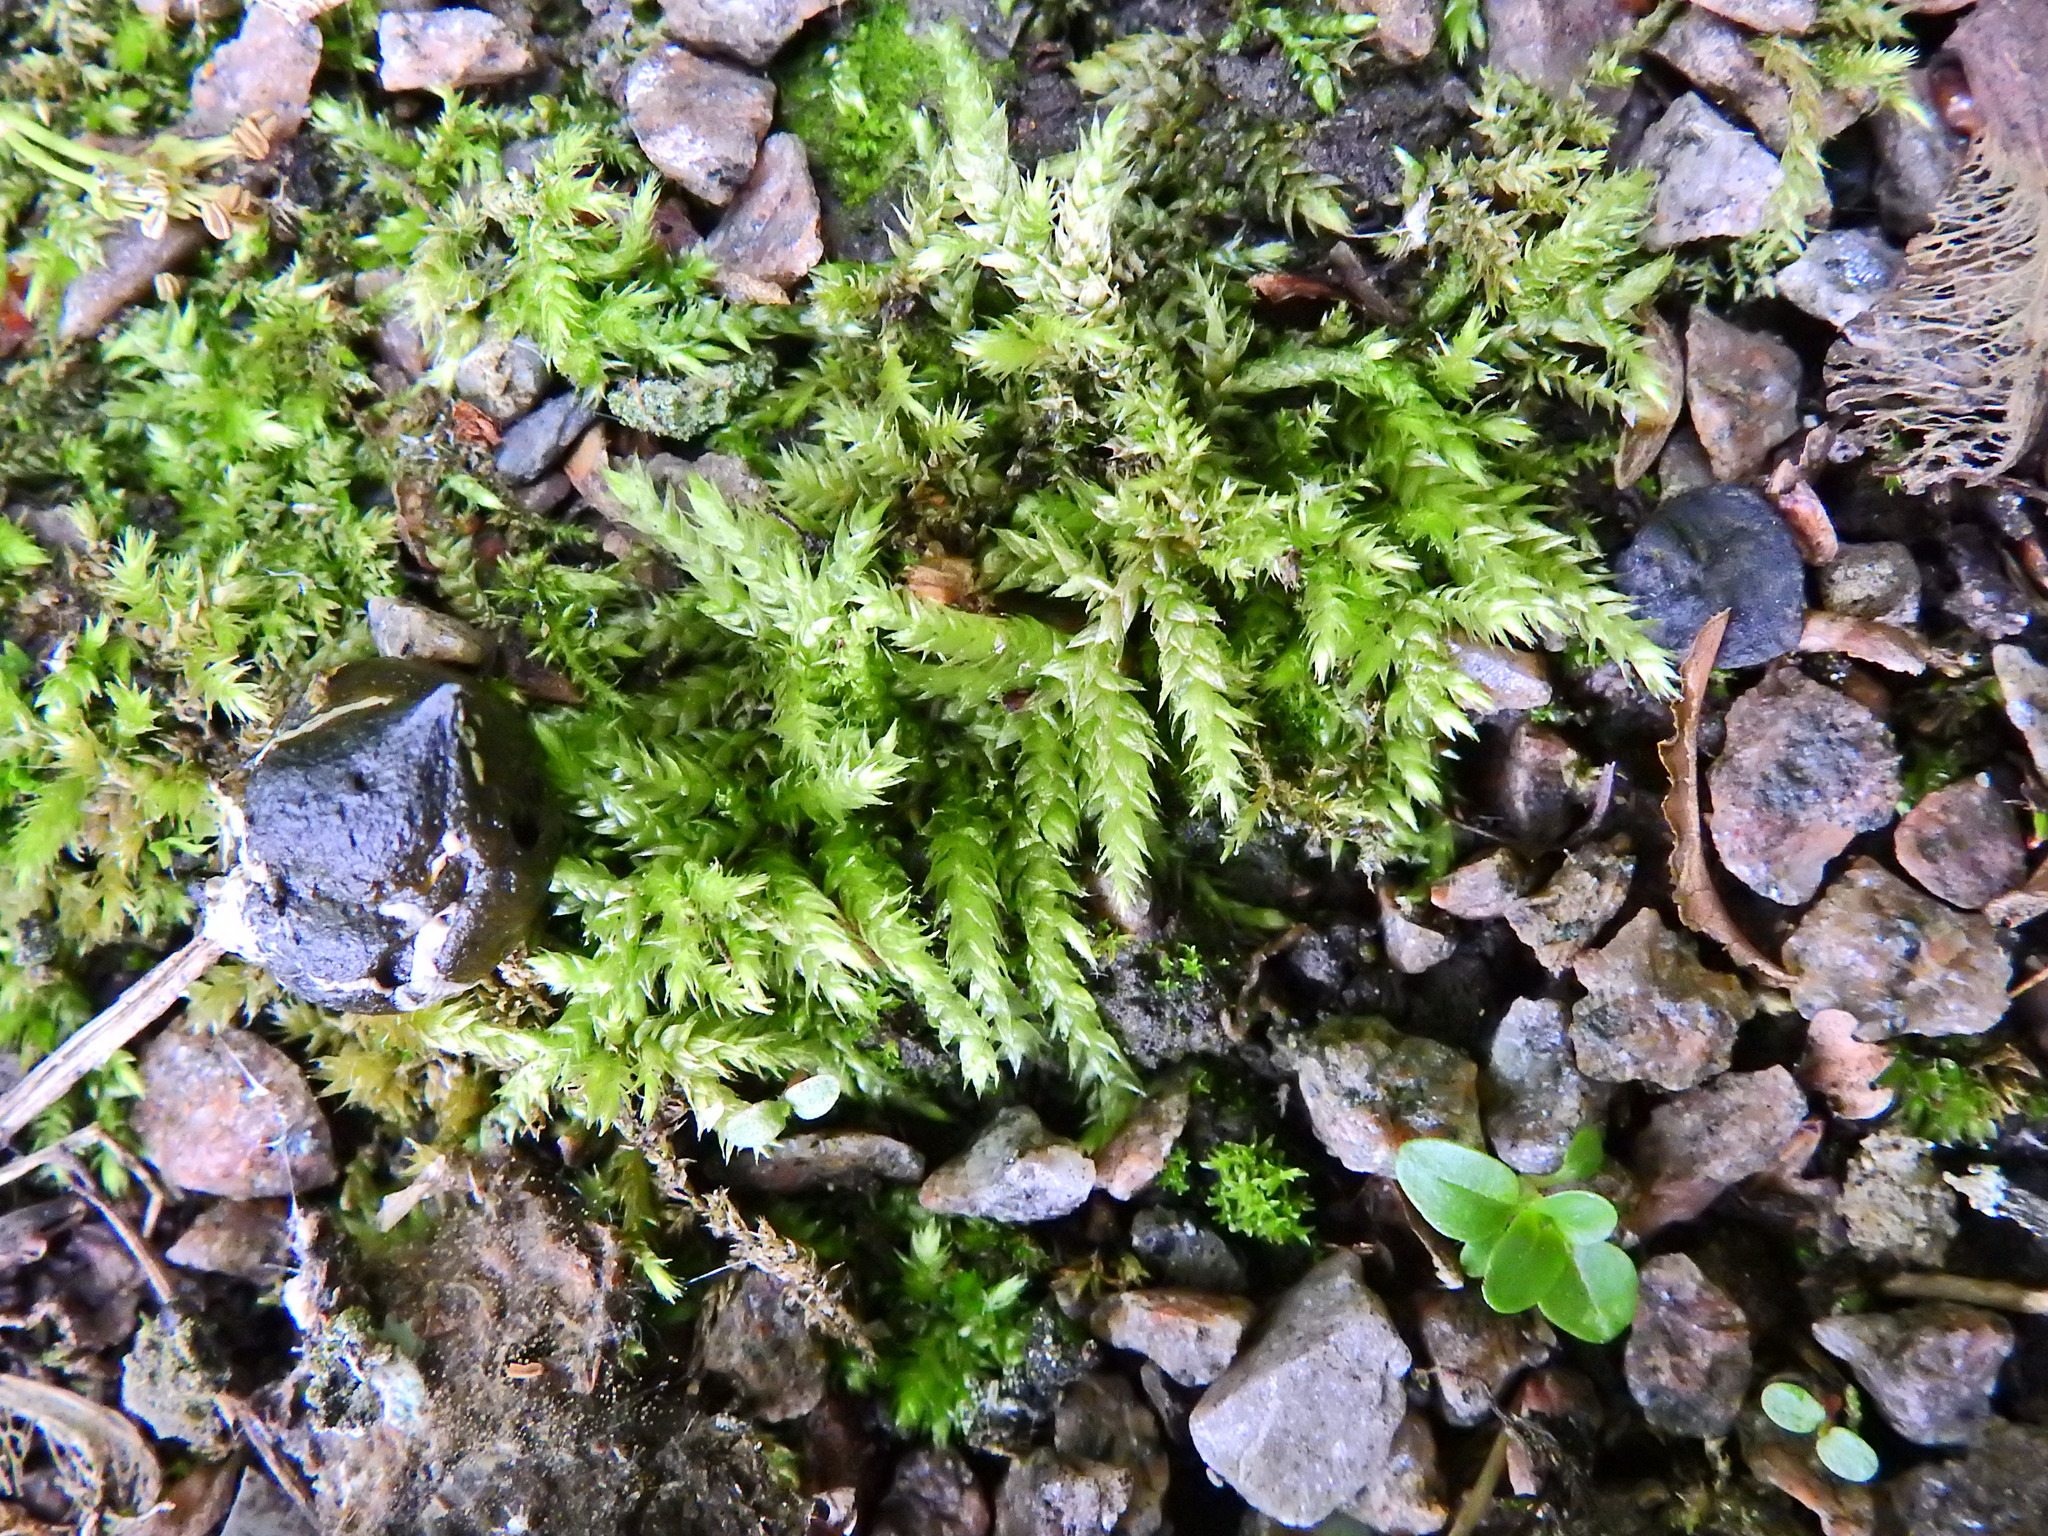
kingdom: Plantae
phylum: Bryophyta
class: Bryopsida
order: Hypnales
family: Brachytheciaceae
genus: Brachythecium
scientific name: Brachythecium rutabulum
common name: Rough-stalked feather-moss
